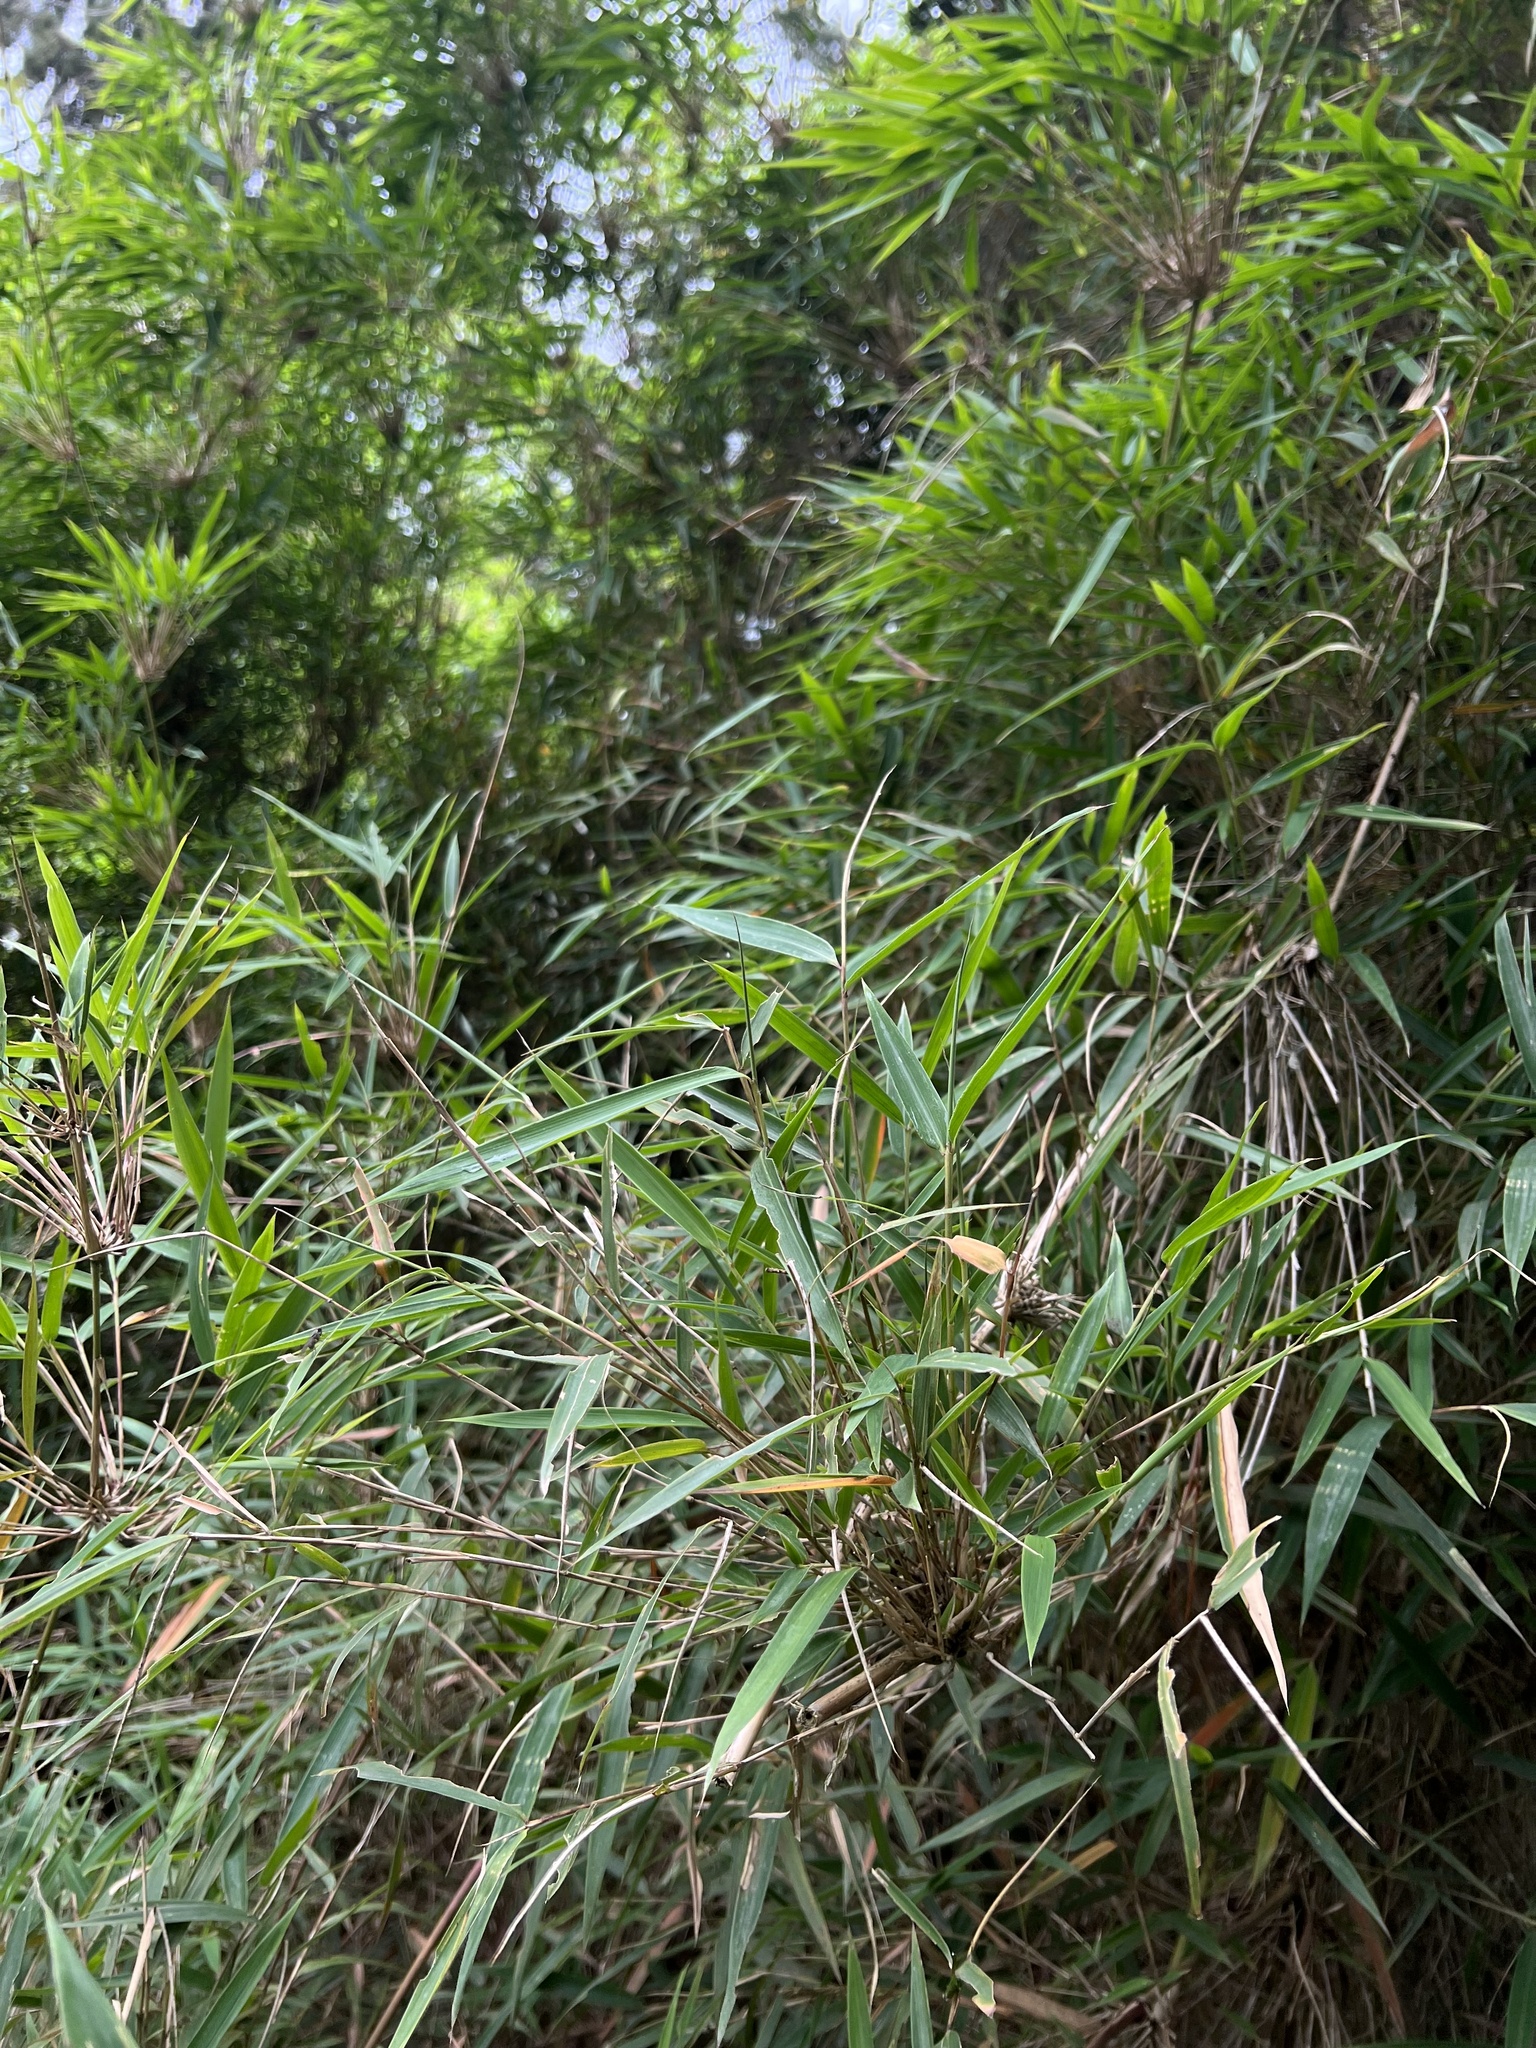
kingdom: Plantae
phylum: Tracheophyta
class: Liliopsida
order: Poales
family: Poaceae
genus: Chusquea
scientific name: Chusquea scandens
